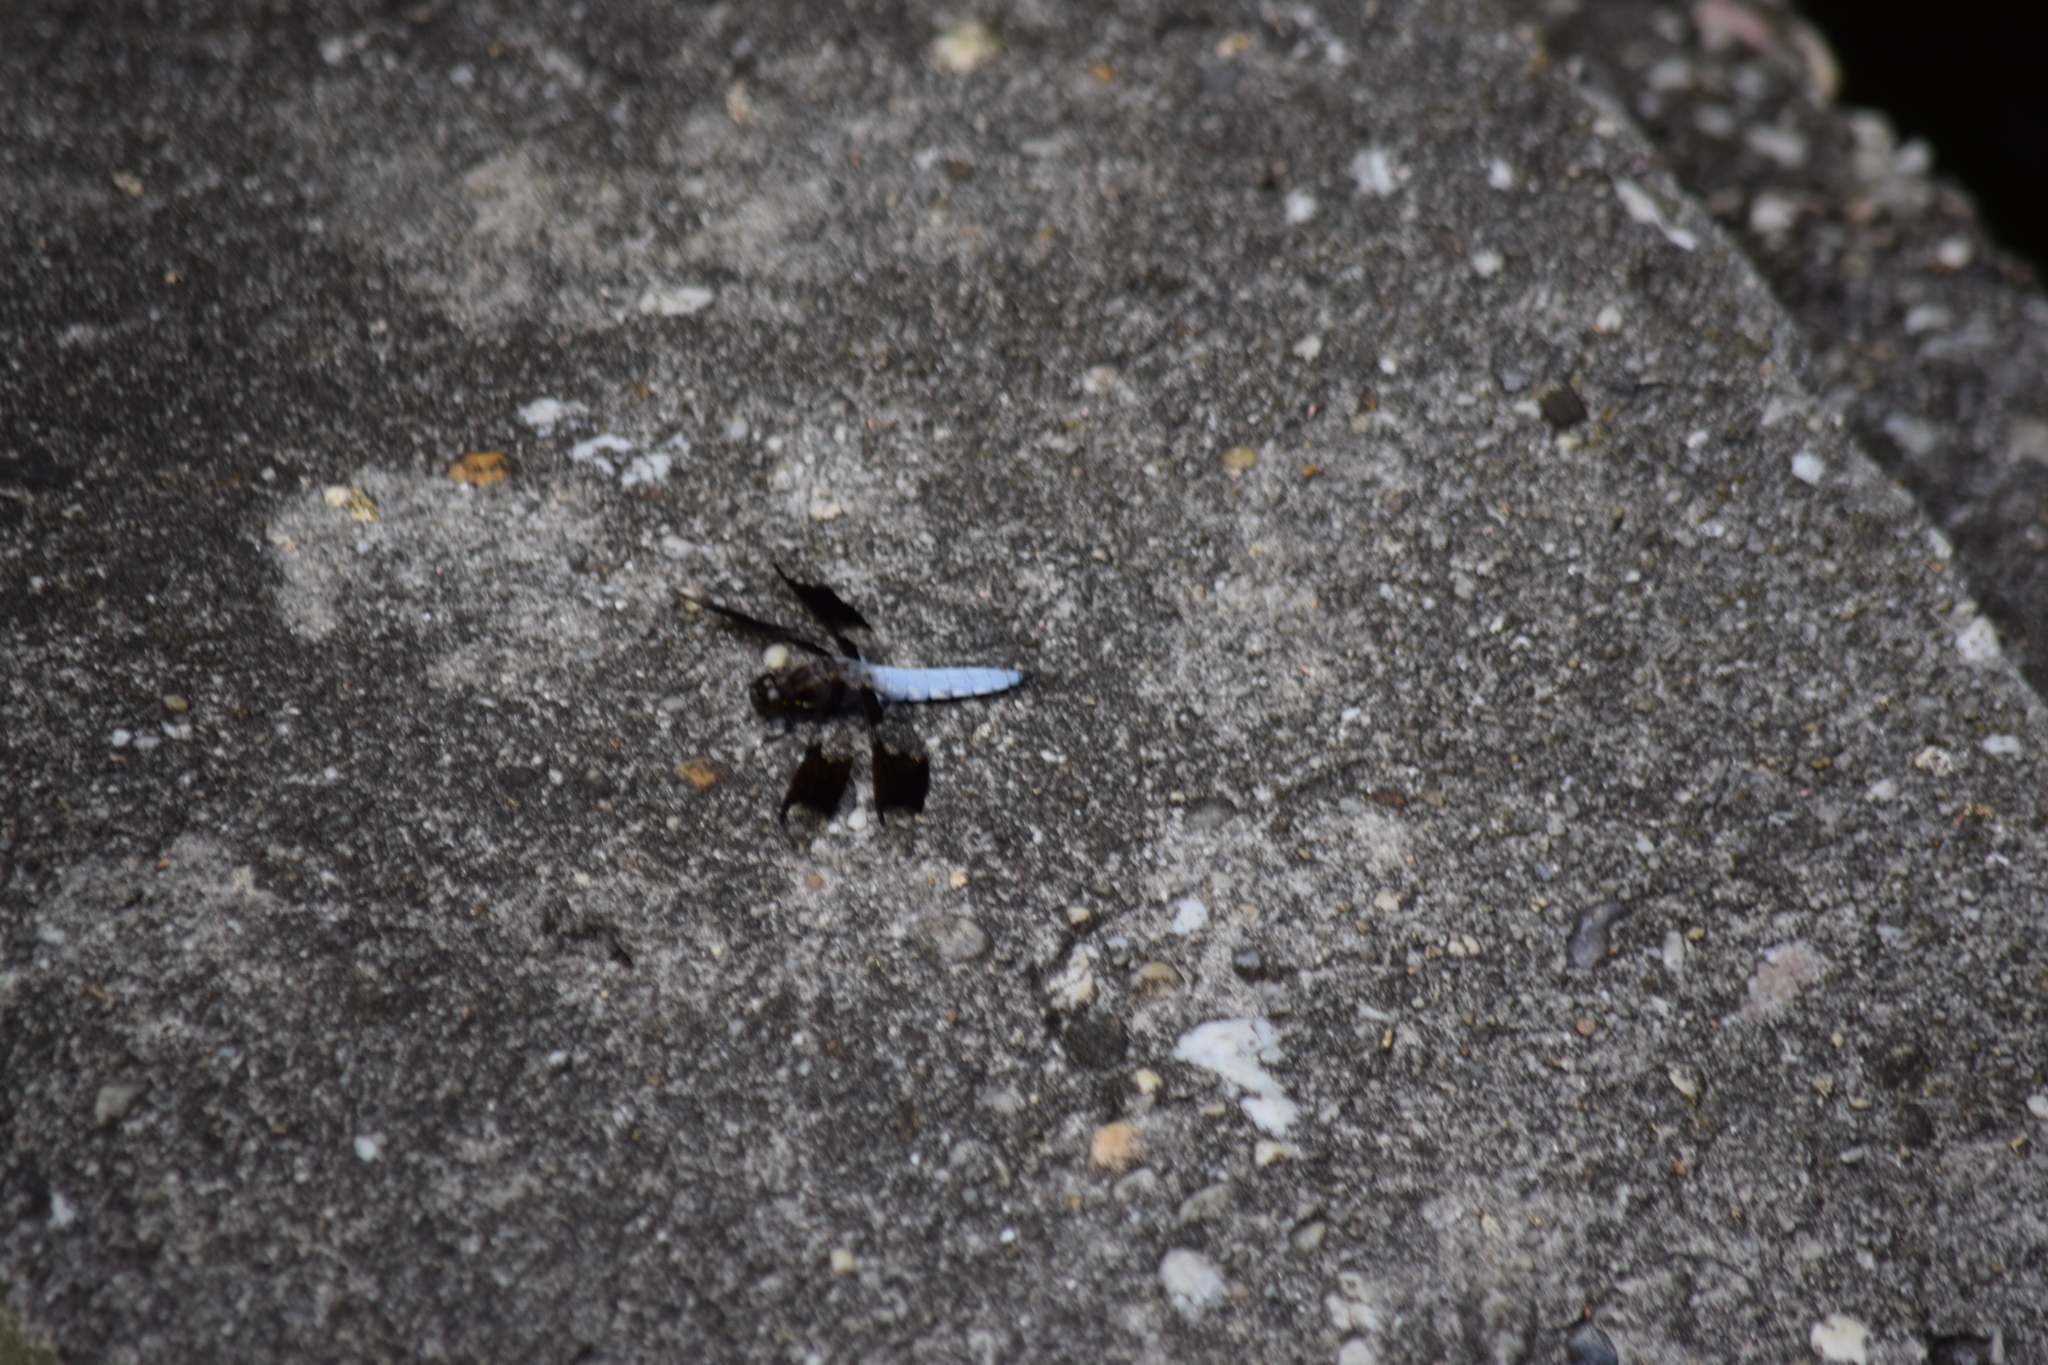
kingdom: Animalia
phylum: Arthropoda
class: Insecta
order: Odonata
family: Libellulidae
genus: Plathemis
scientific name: Plathemis lydia
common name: Common whitetail
